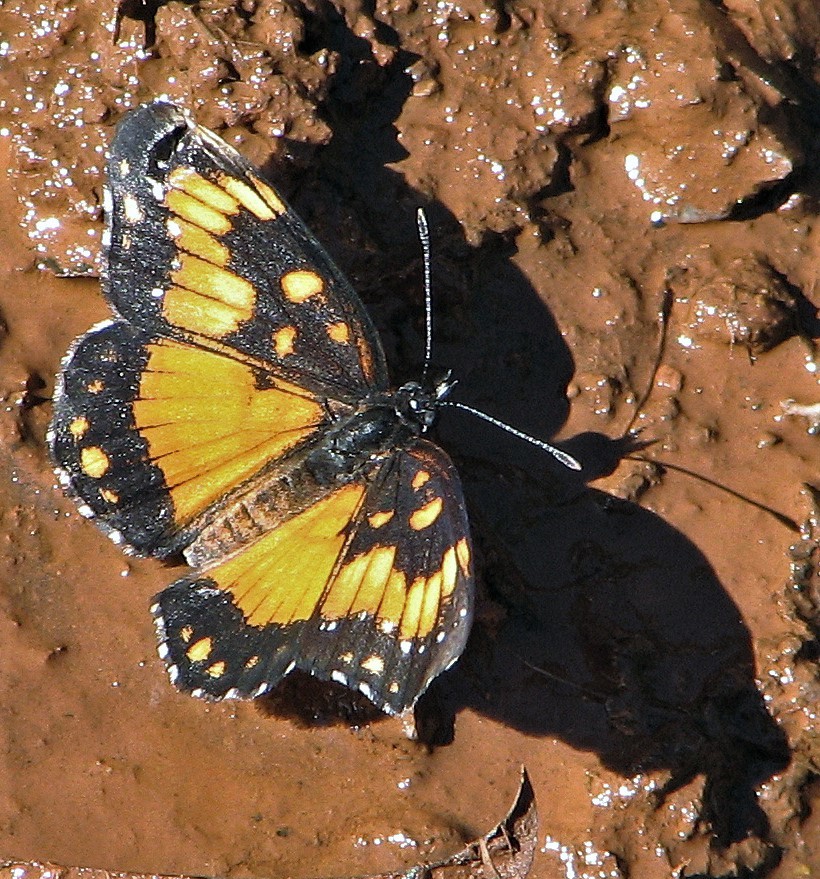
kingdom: Animalia
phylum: Arthropoda
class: Insecta
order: Lepidoptera
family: Nymphalidae
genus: Chlosyne
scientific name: Chlosyne lacinia
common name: Bordered patch
